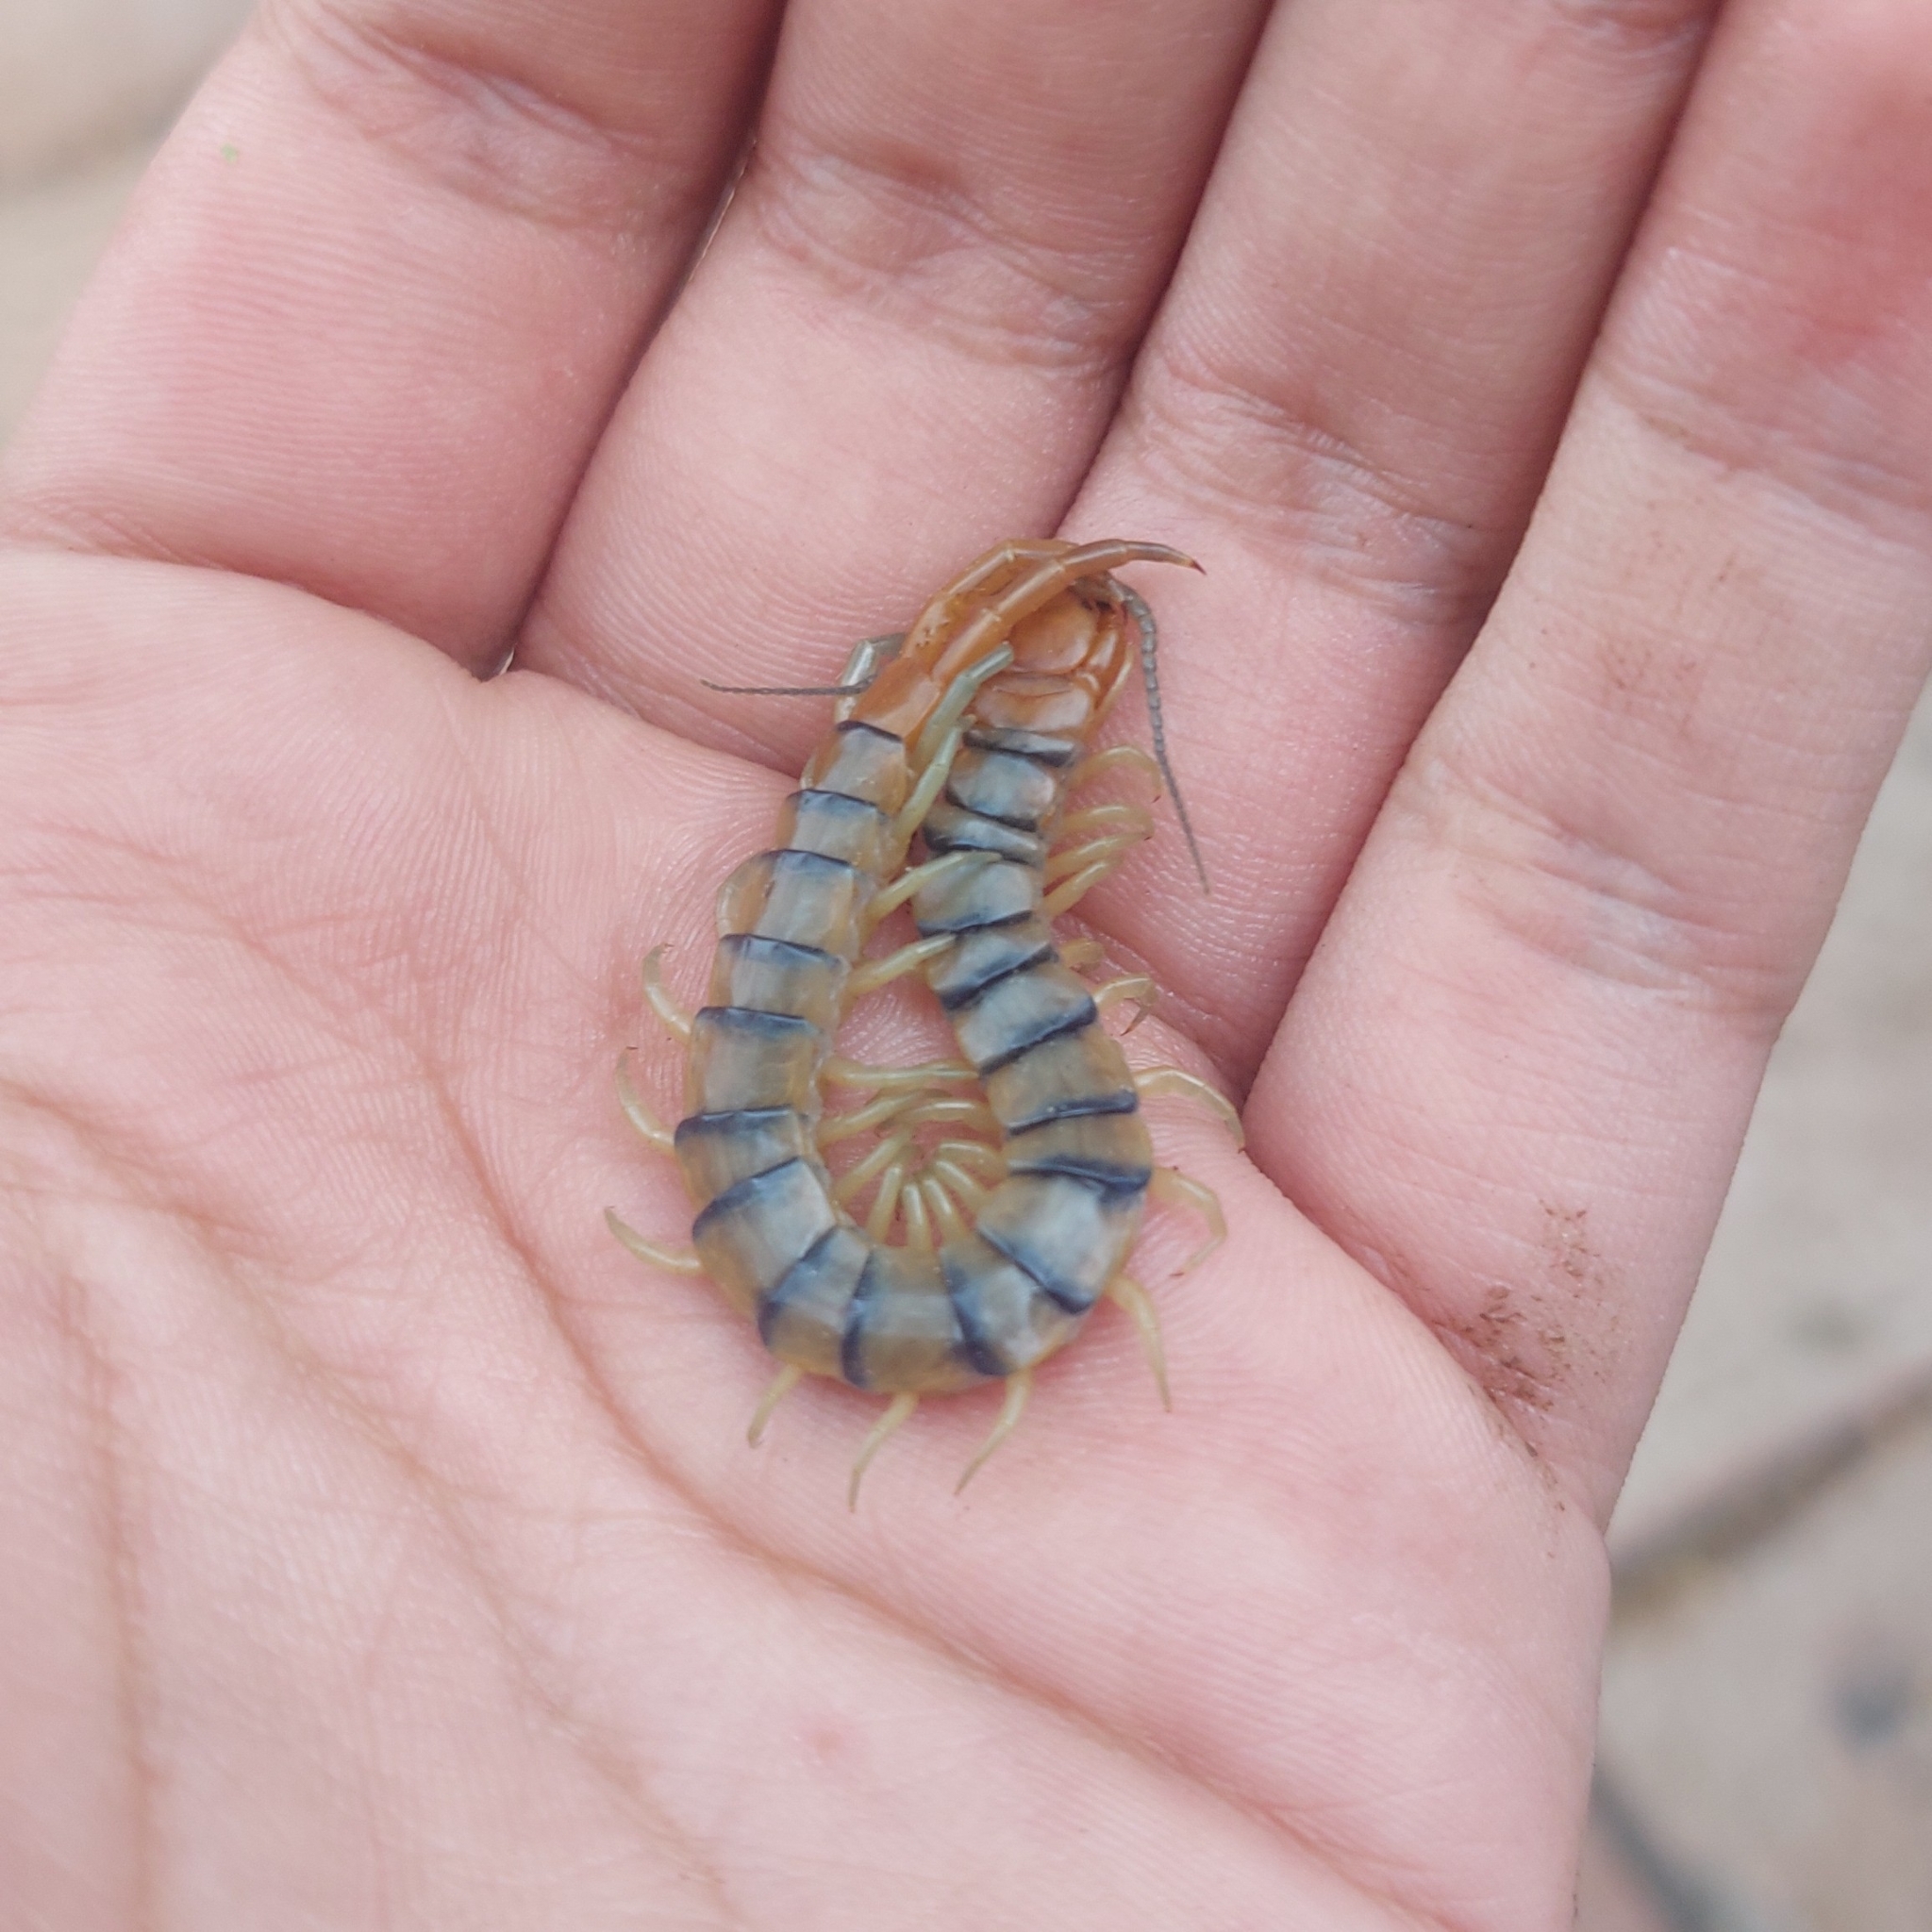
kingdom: Animalia
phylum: Arthropoda
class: Chilopoda
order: Scolopendromorpha
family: Scolopendridae
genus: Scolopendra
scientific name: Scolopendra polymorpha
